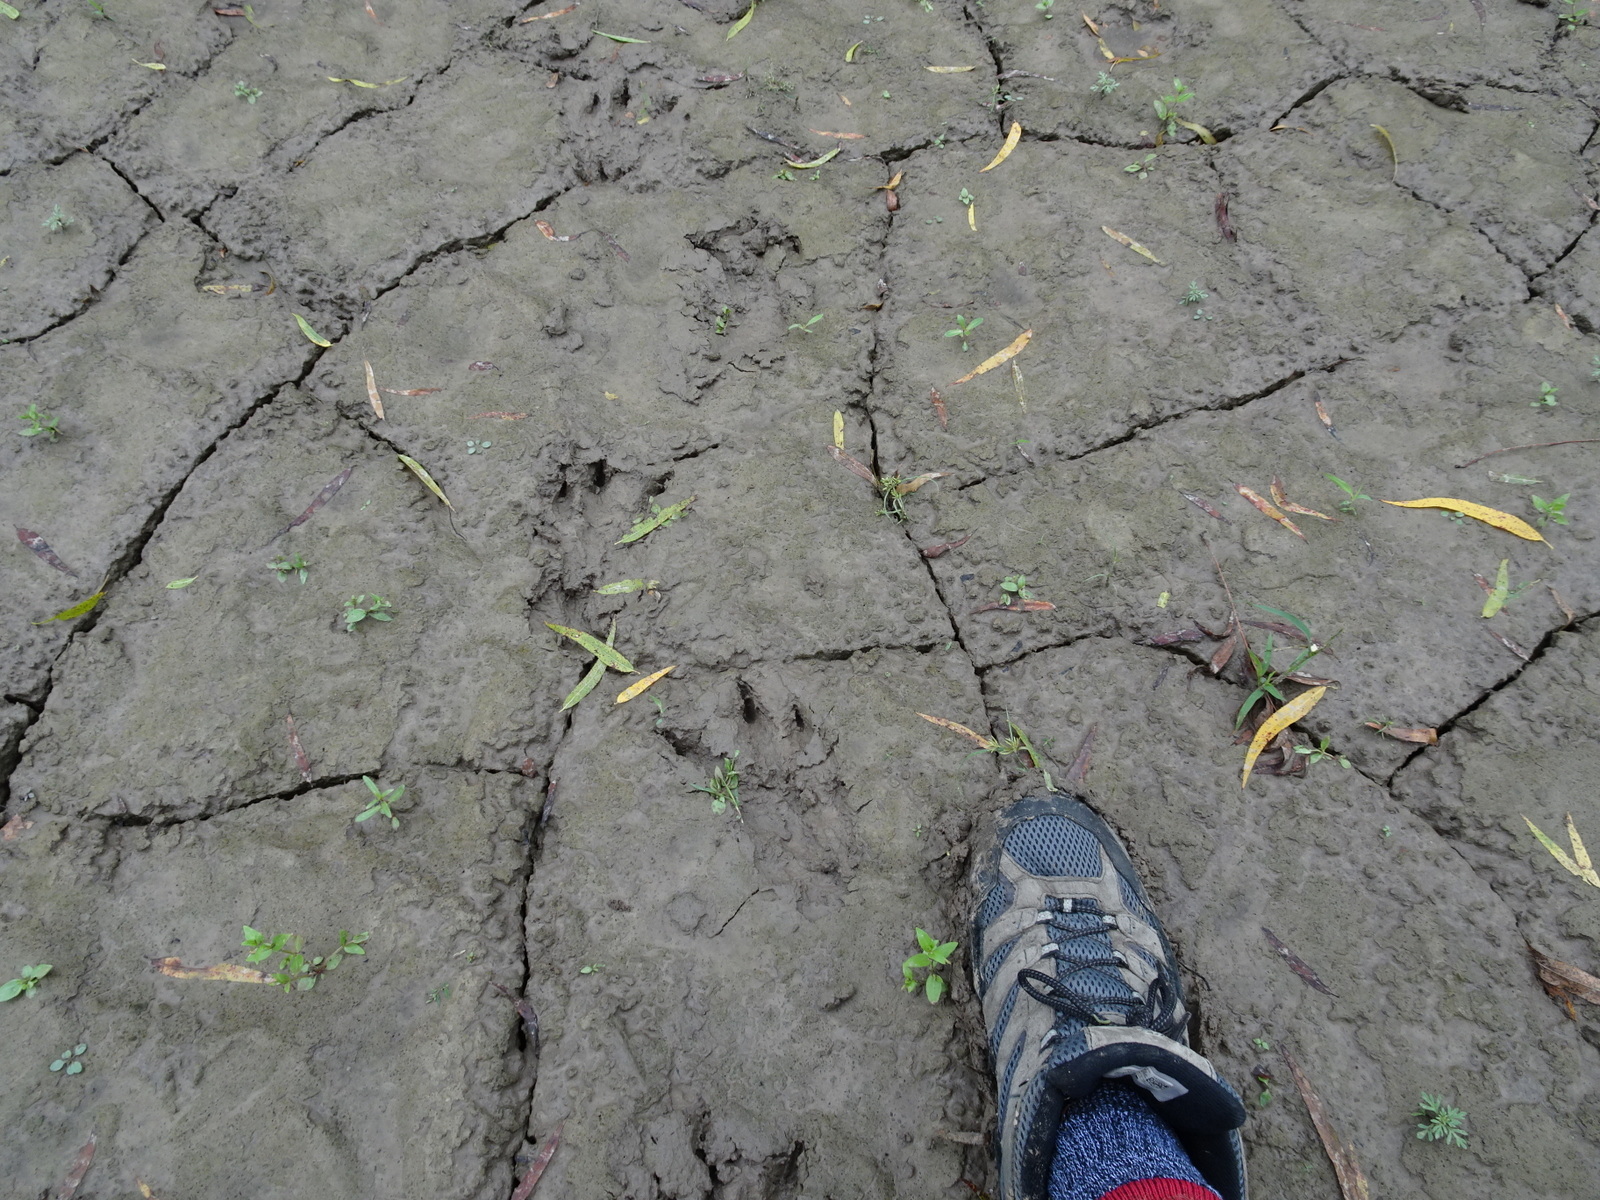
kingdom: Animalia
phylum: Chordata
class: Mammalia
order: Rodentia
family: Castoridae
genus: Castor
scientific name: Castor canadensis
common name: American beaver
